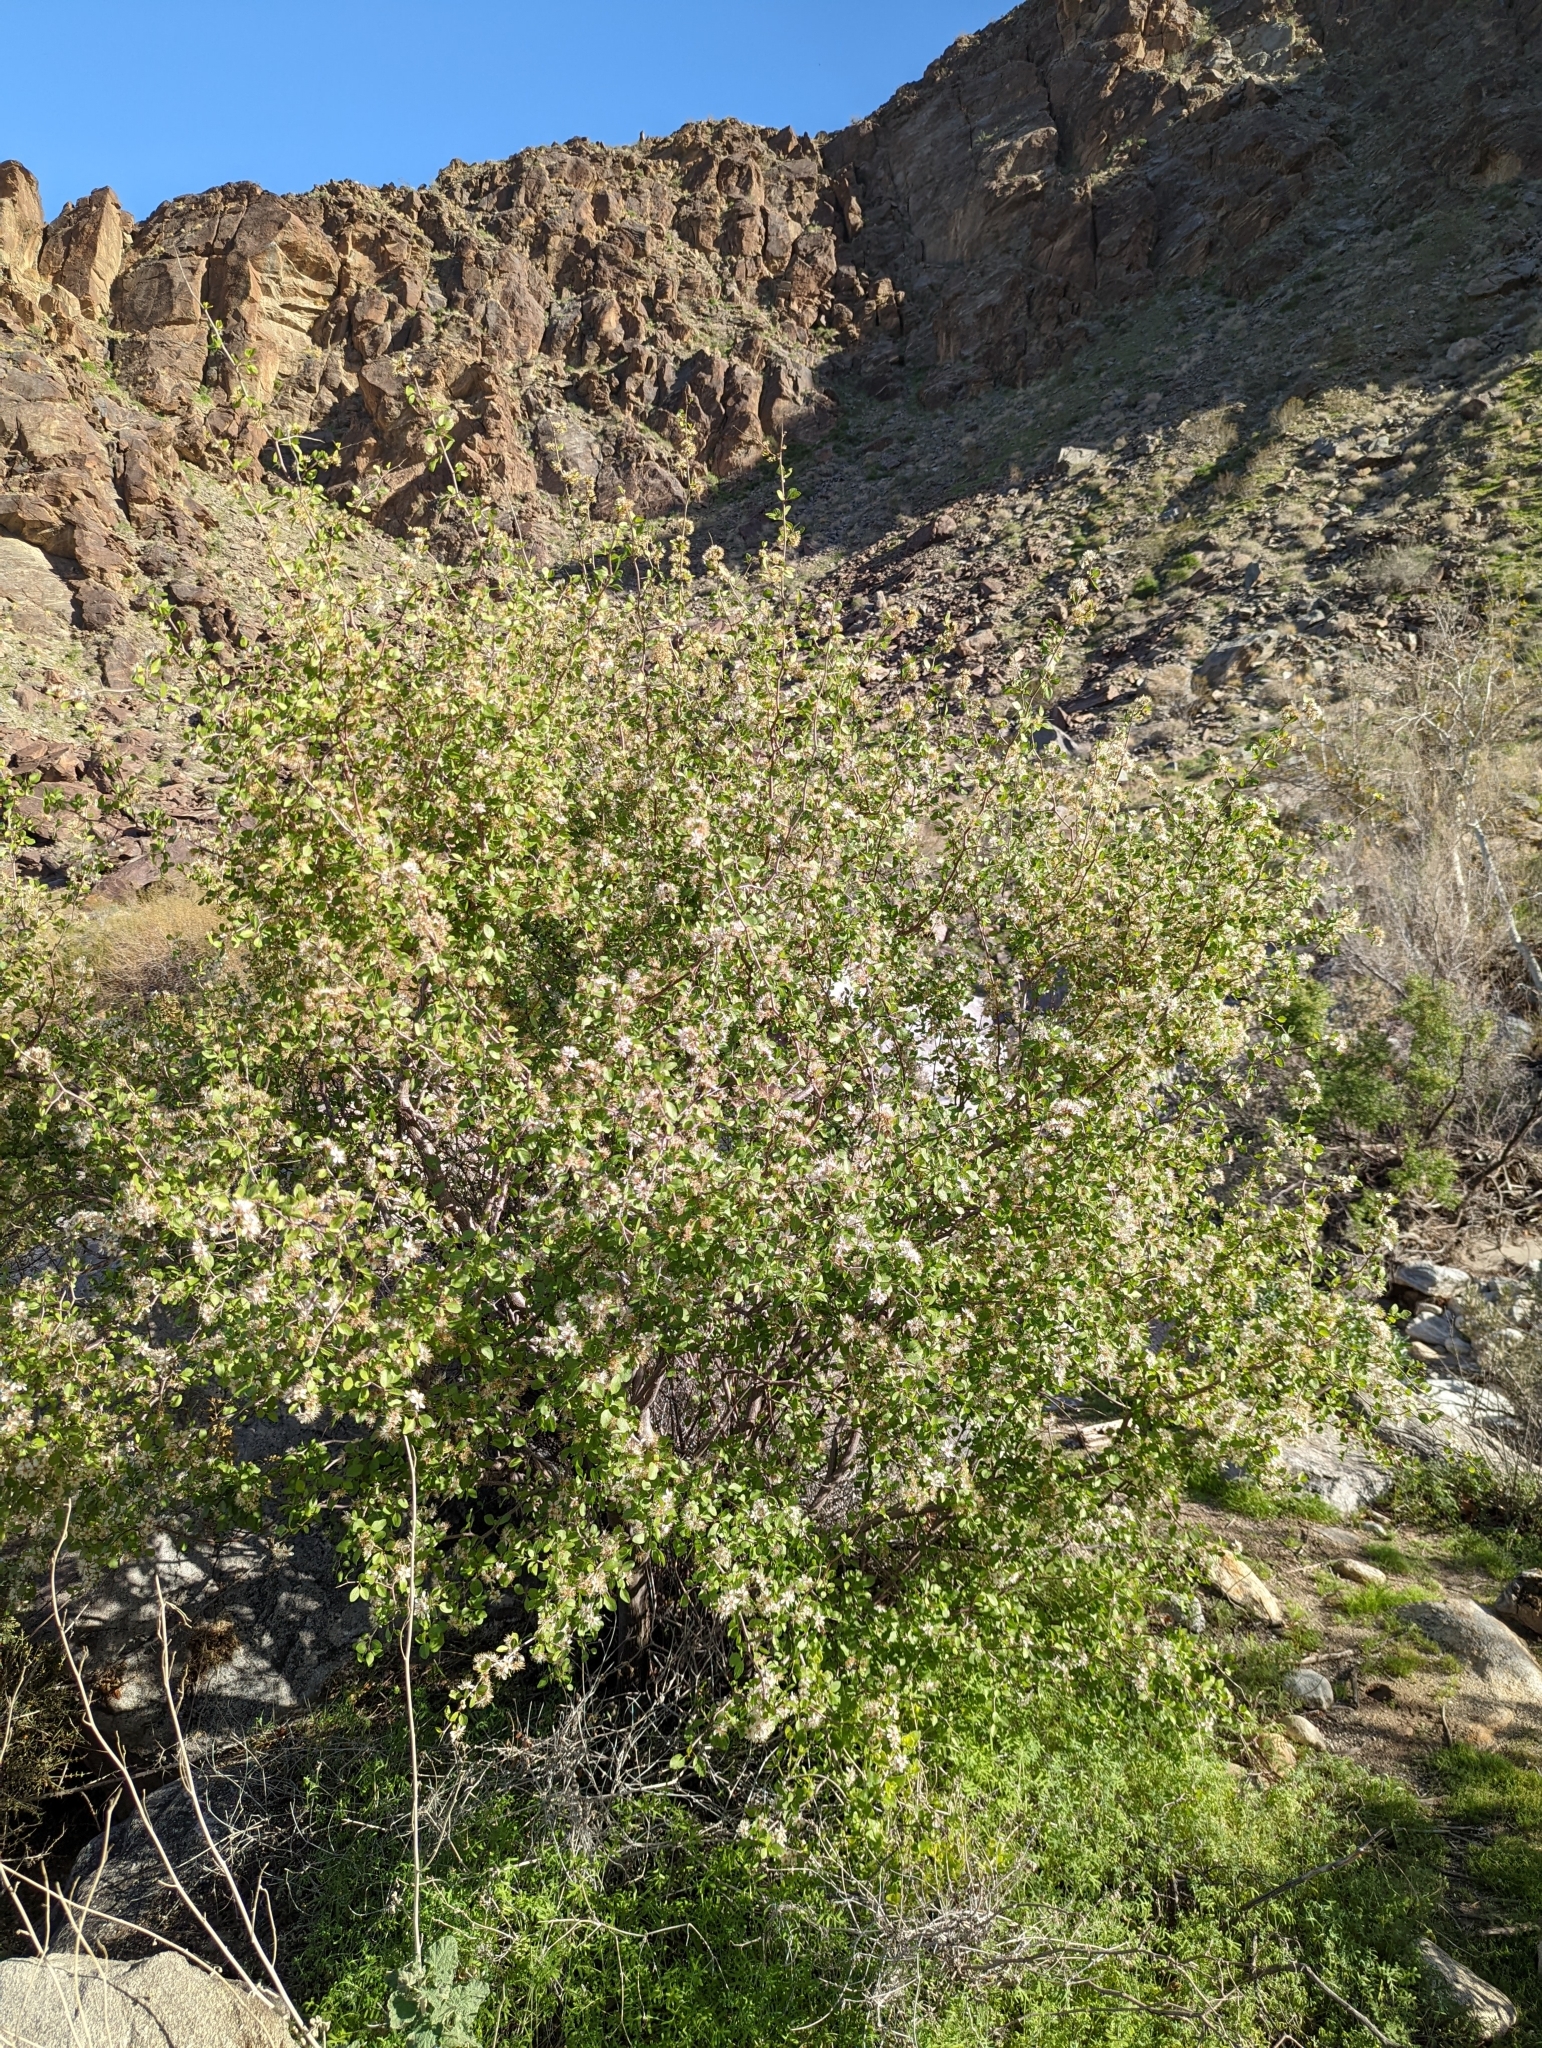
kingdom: Plantae
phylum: Tracheophyta
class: Magnoliopsida
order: Rosales
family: Rosaceae
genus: Prunus
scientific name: Prunus fremontii
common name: Desert apricot
